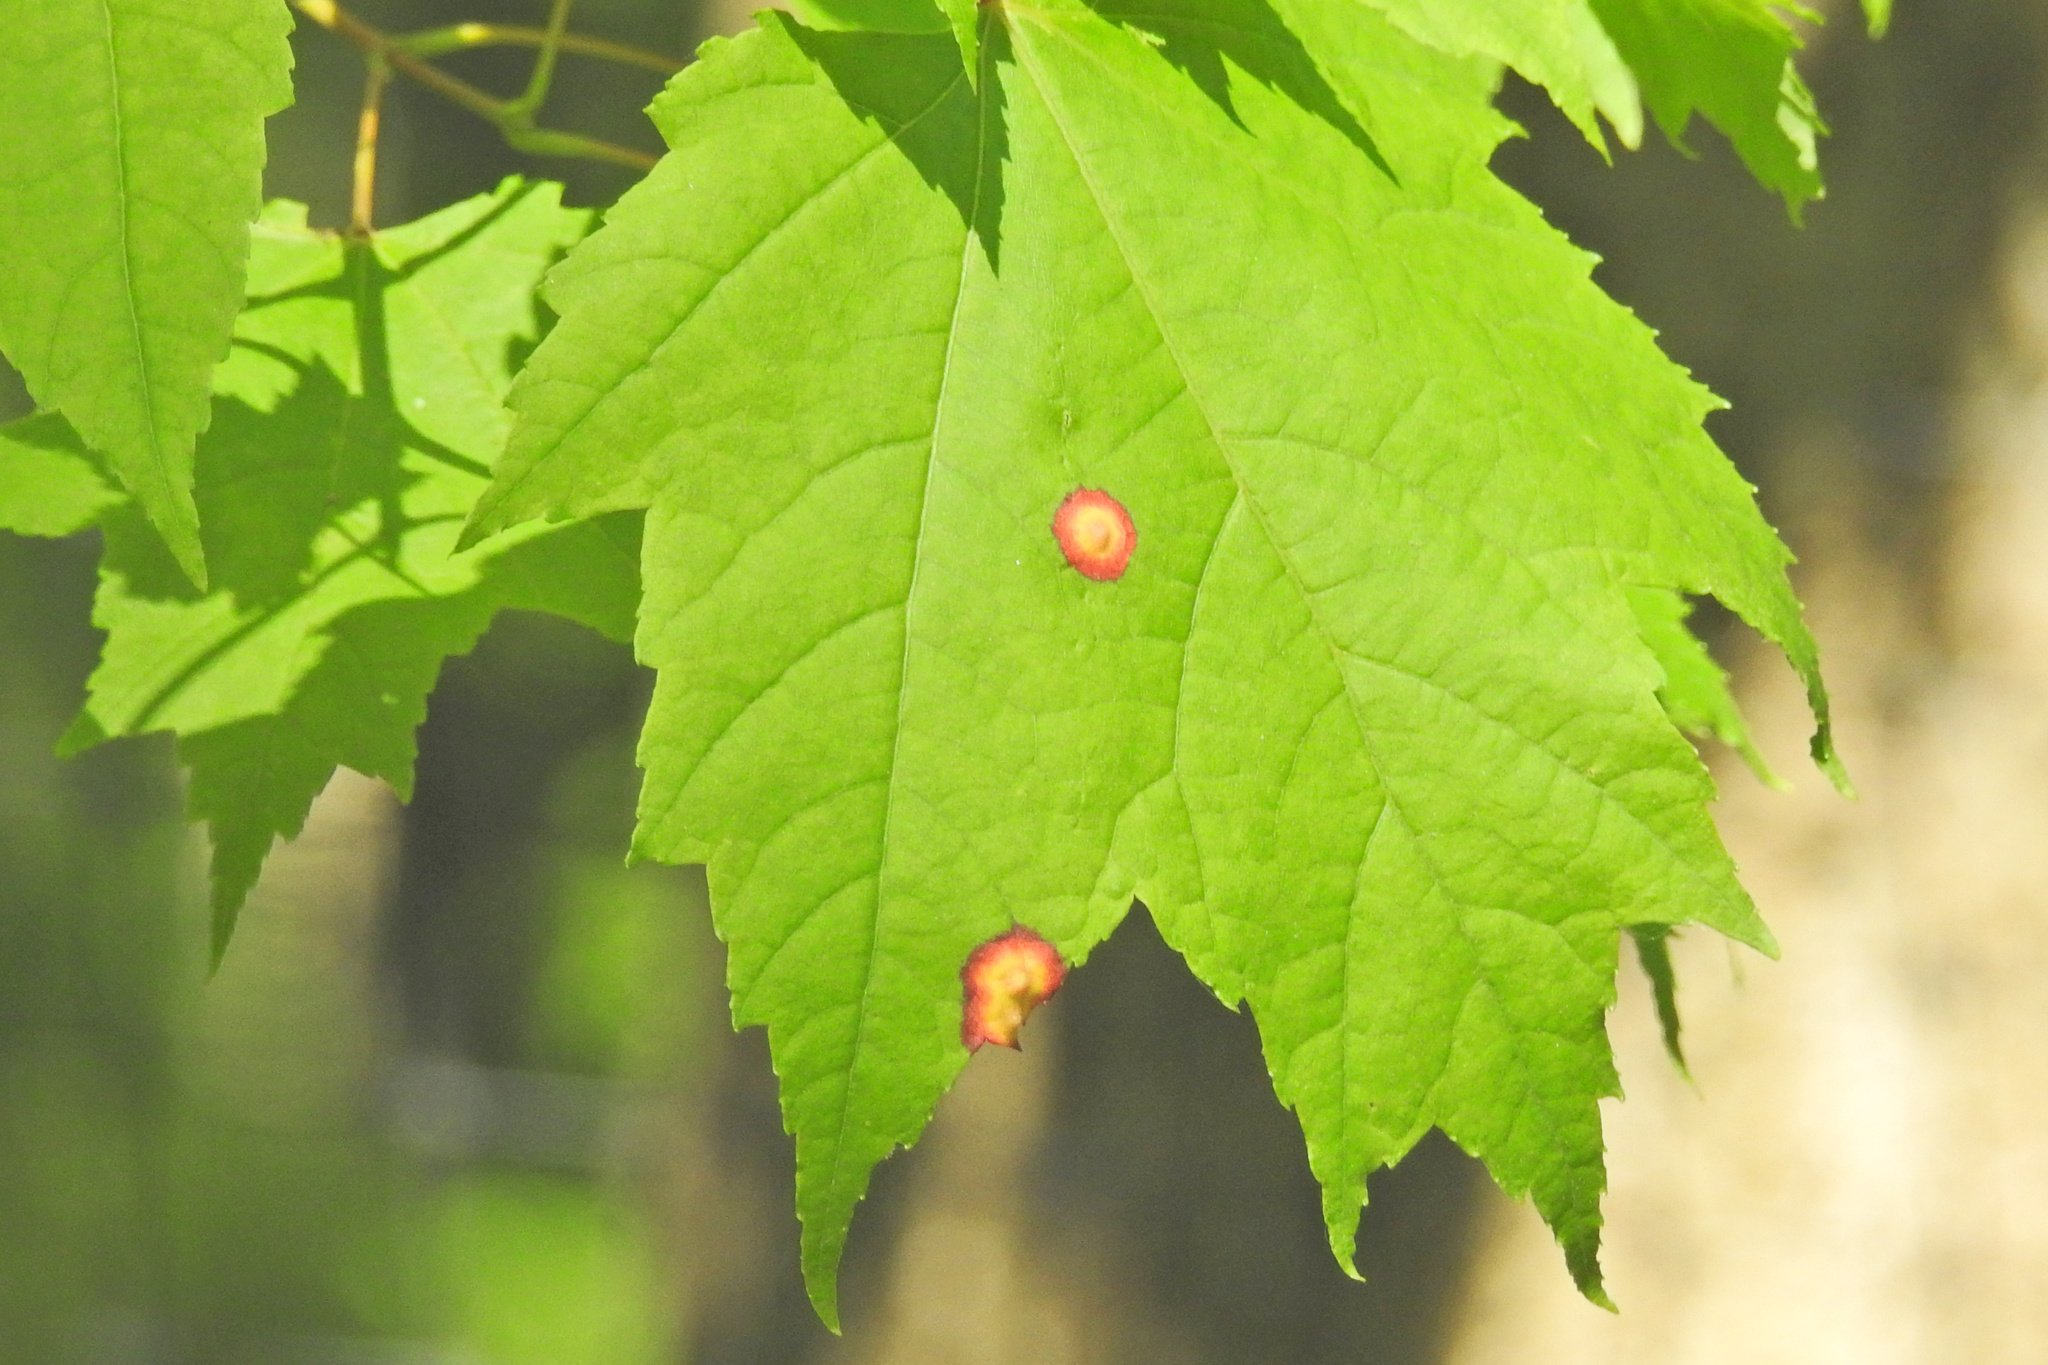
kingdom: Animalia
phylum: Arthropoda
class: Insecta
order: Diptera
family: Cecidomyiidae
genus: Acericecis
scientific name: Acericecis ocellaris
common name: Ocellate gall midge
